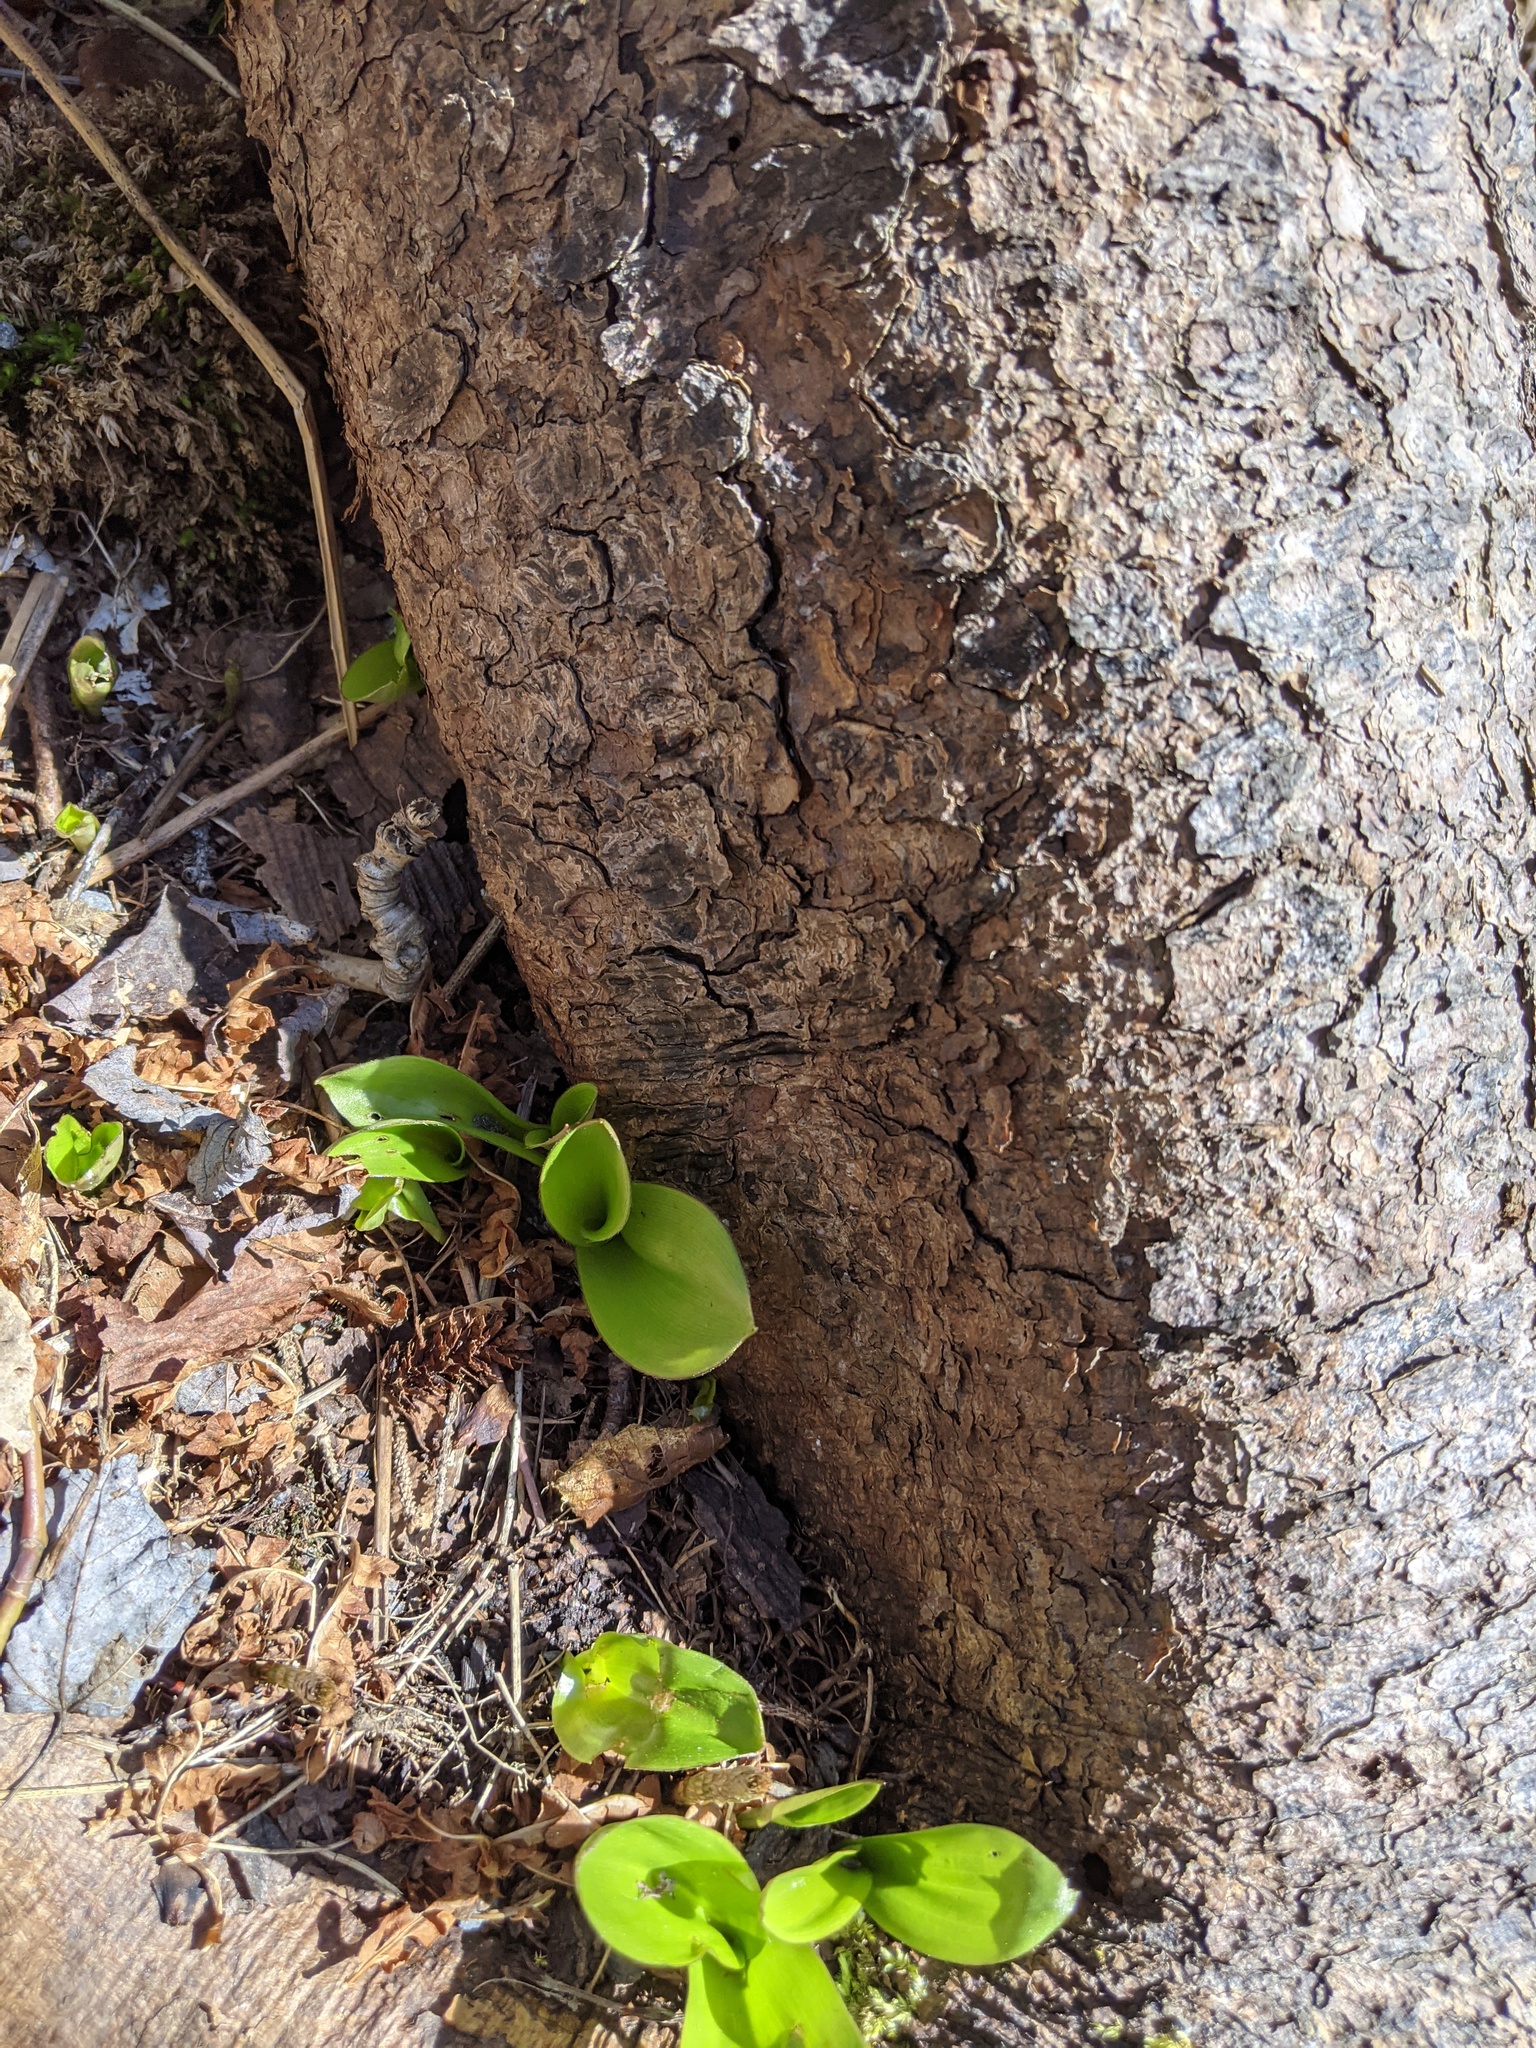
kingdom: Plantae
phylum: Tracheophyta
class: Liliopsida
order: Liliales
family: Liliaceae
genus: Clintonia
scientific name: Clintonia borealis
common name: Yellow clintonia
